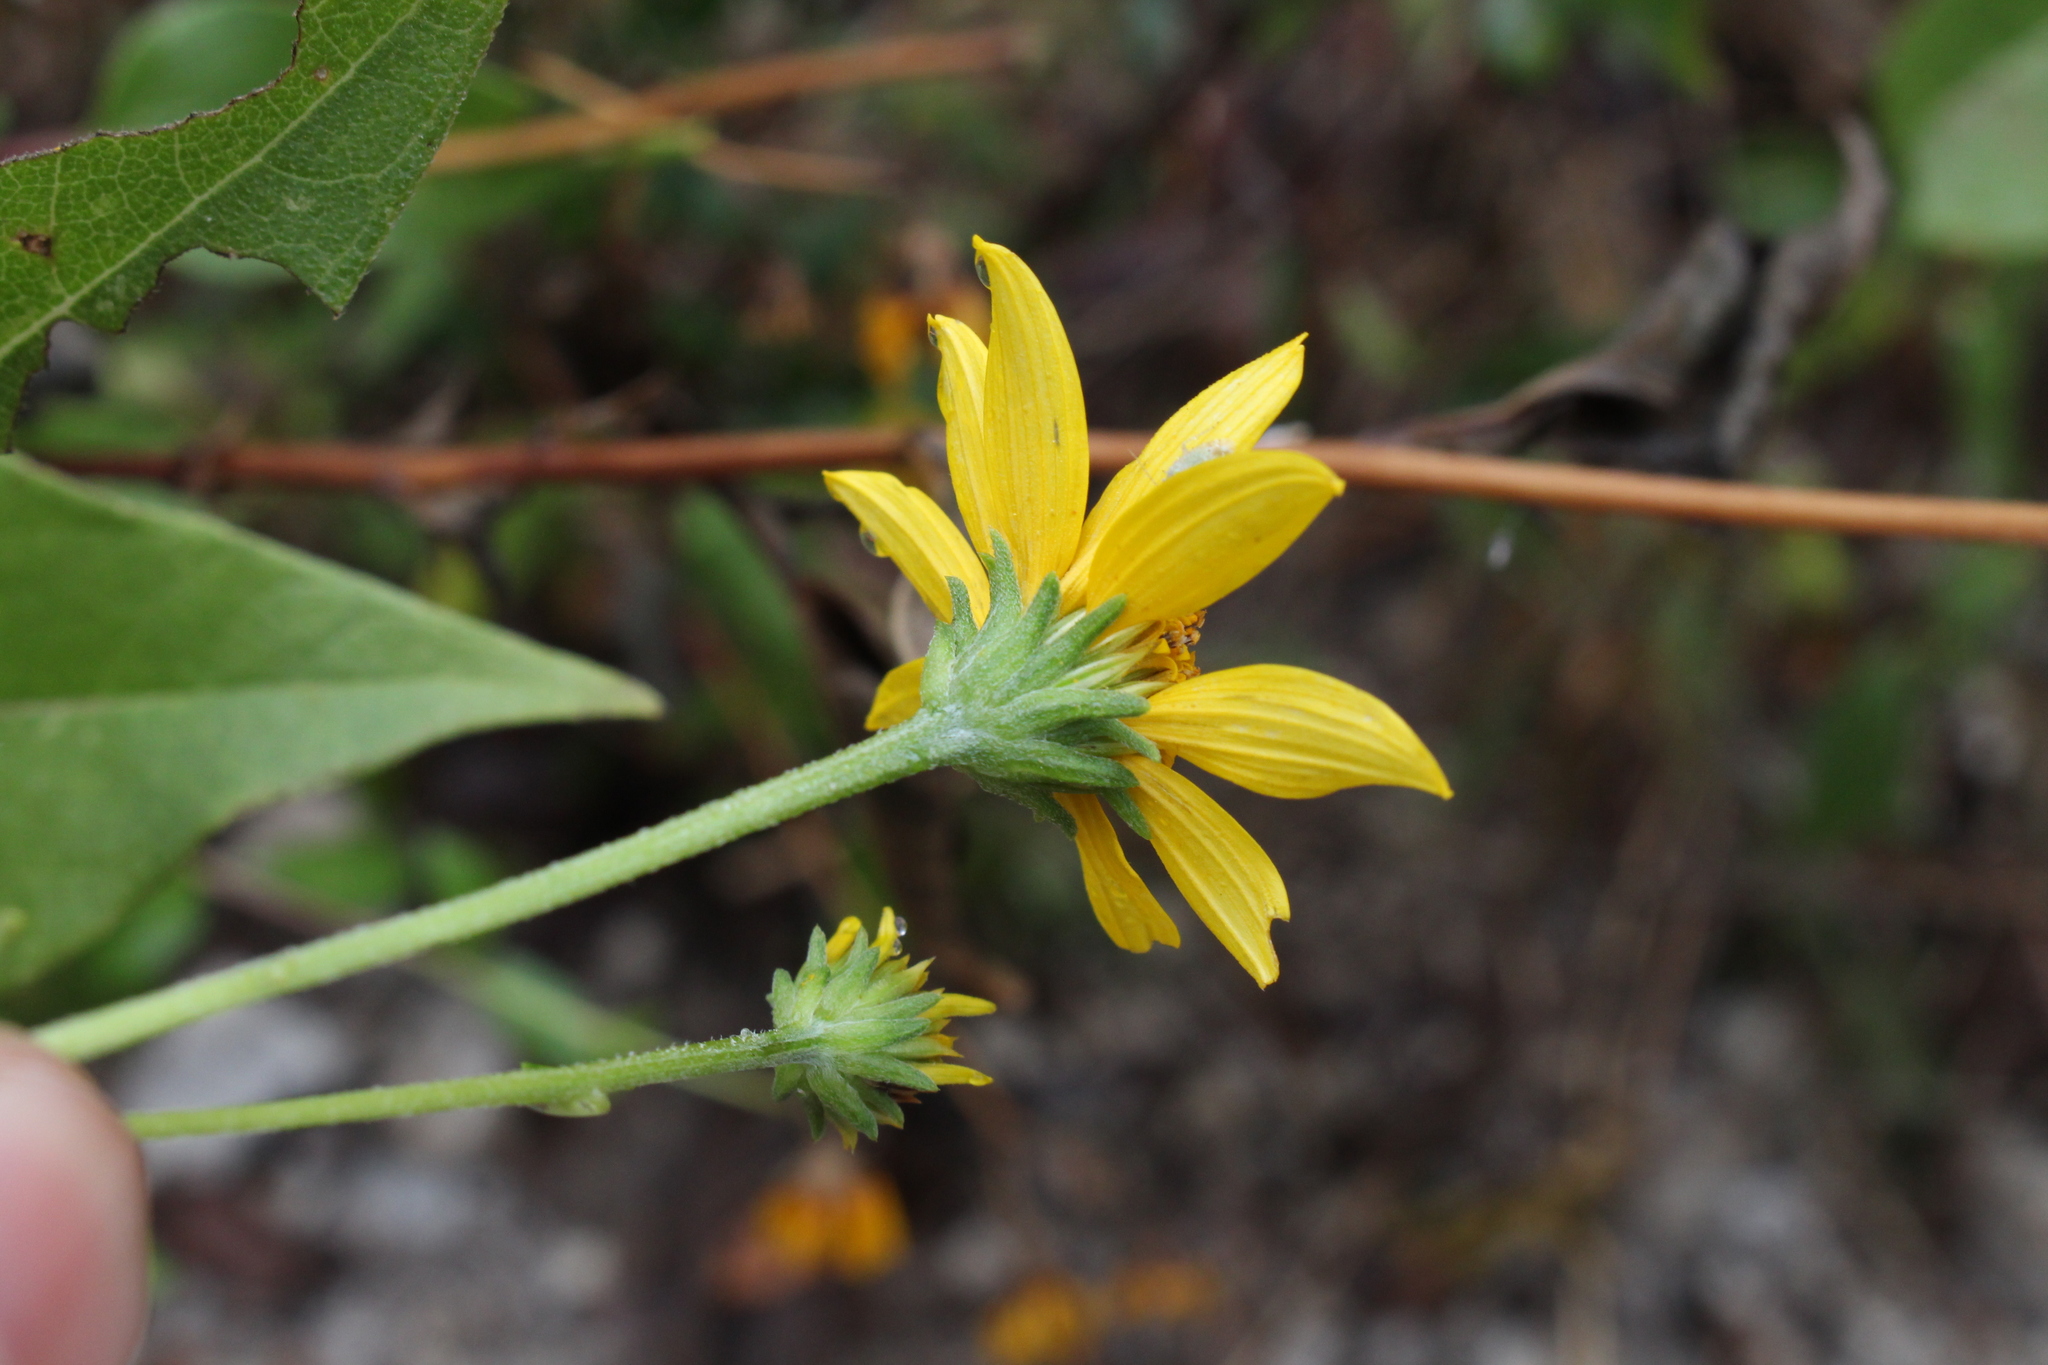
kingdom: Plantae
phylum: Tracheophyta
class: Magnoliopsida
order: Asterales
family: Asteraceae
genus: Viguiera
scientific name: Viguiera dentata
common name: Toothleaf
